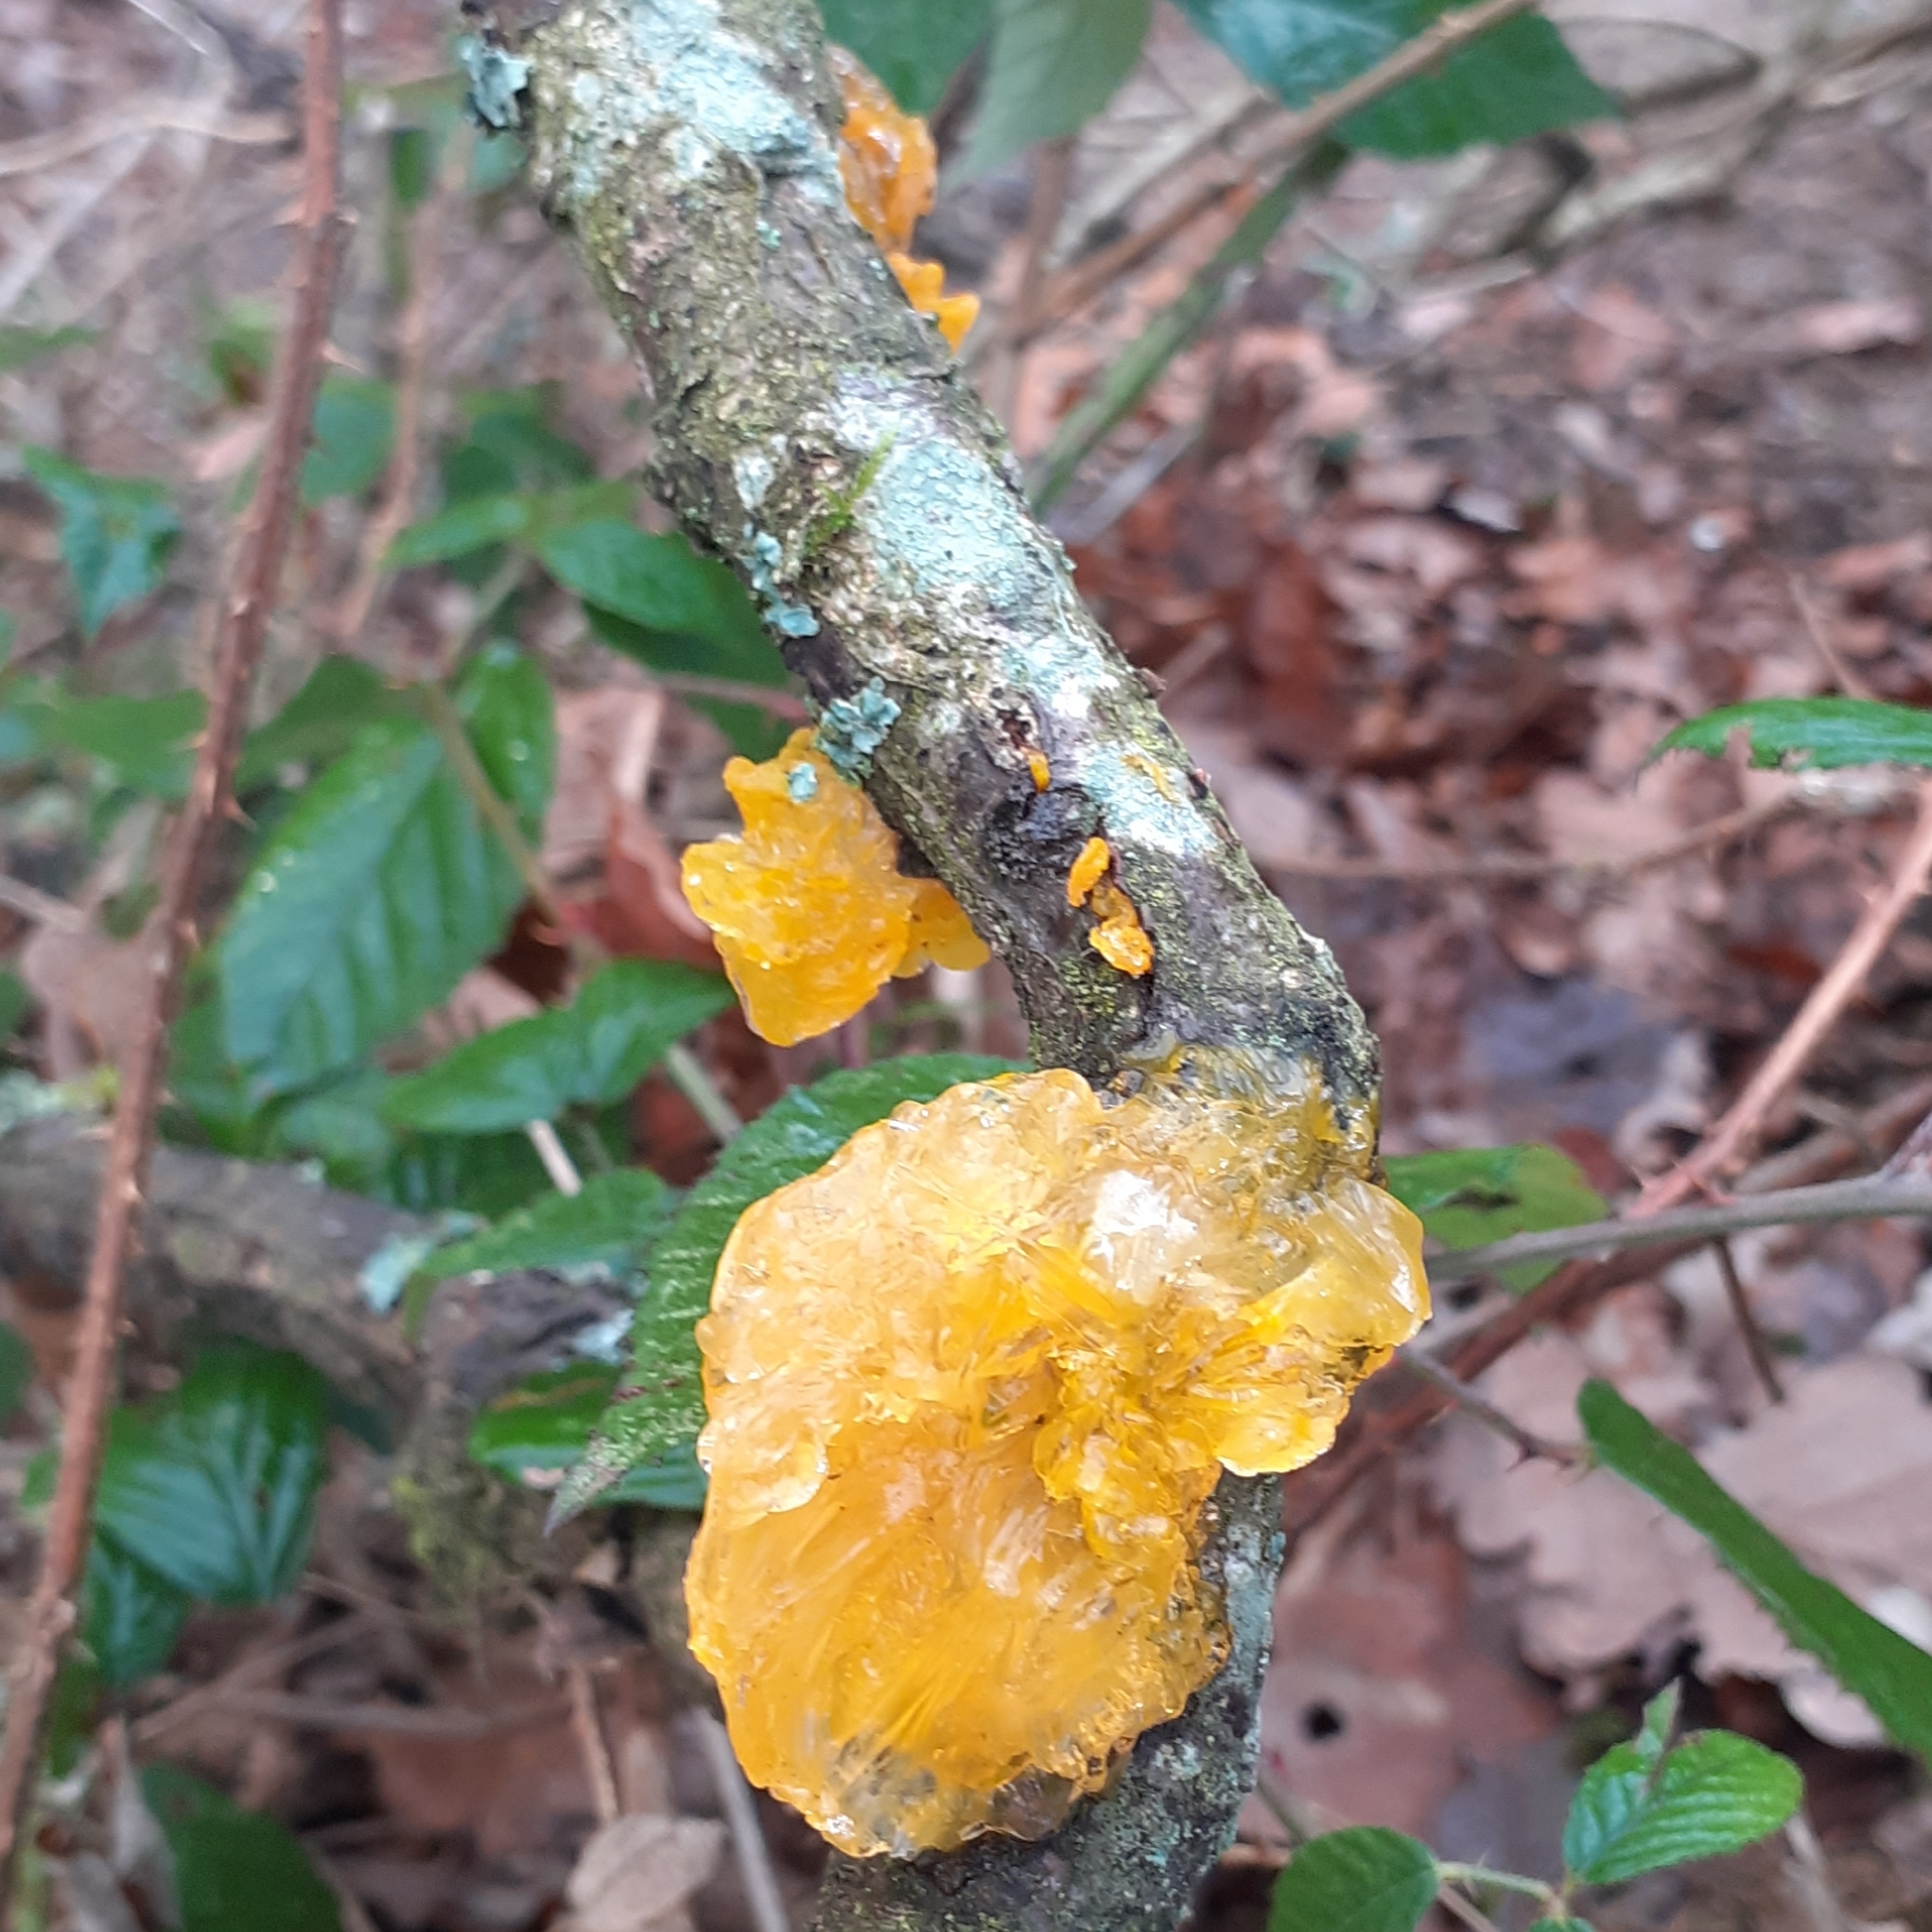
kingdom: Fungi
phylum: Basidiomycota
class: Tremellomycetes
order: Tremellales
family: Tremellaceae
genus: Tremella
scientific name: Tremella mesenterica
